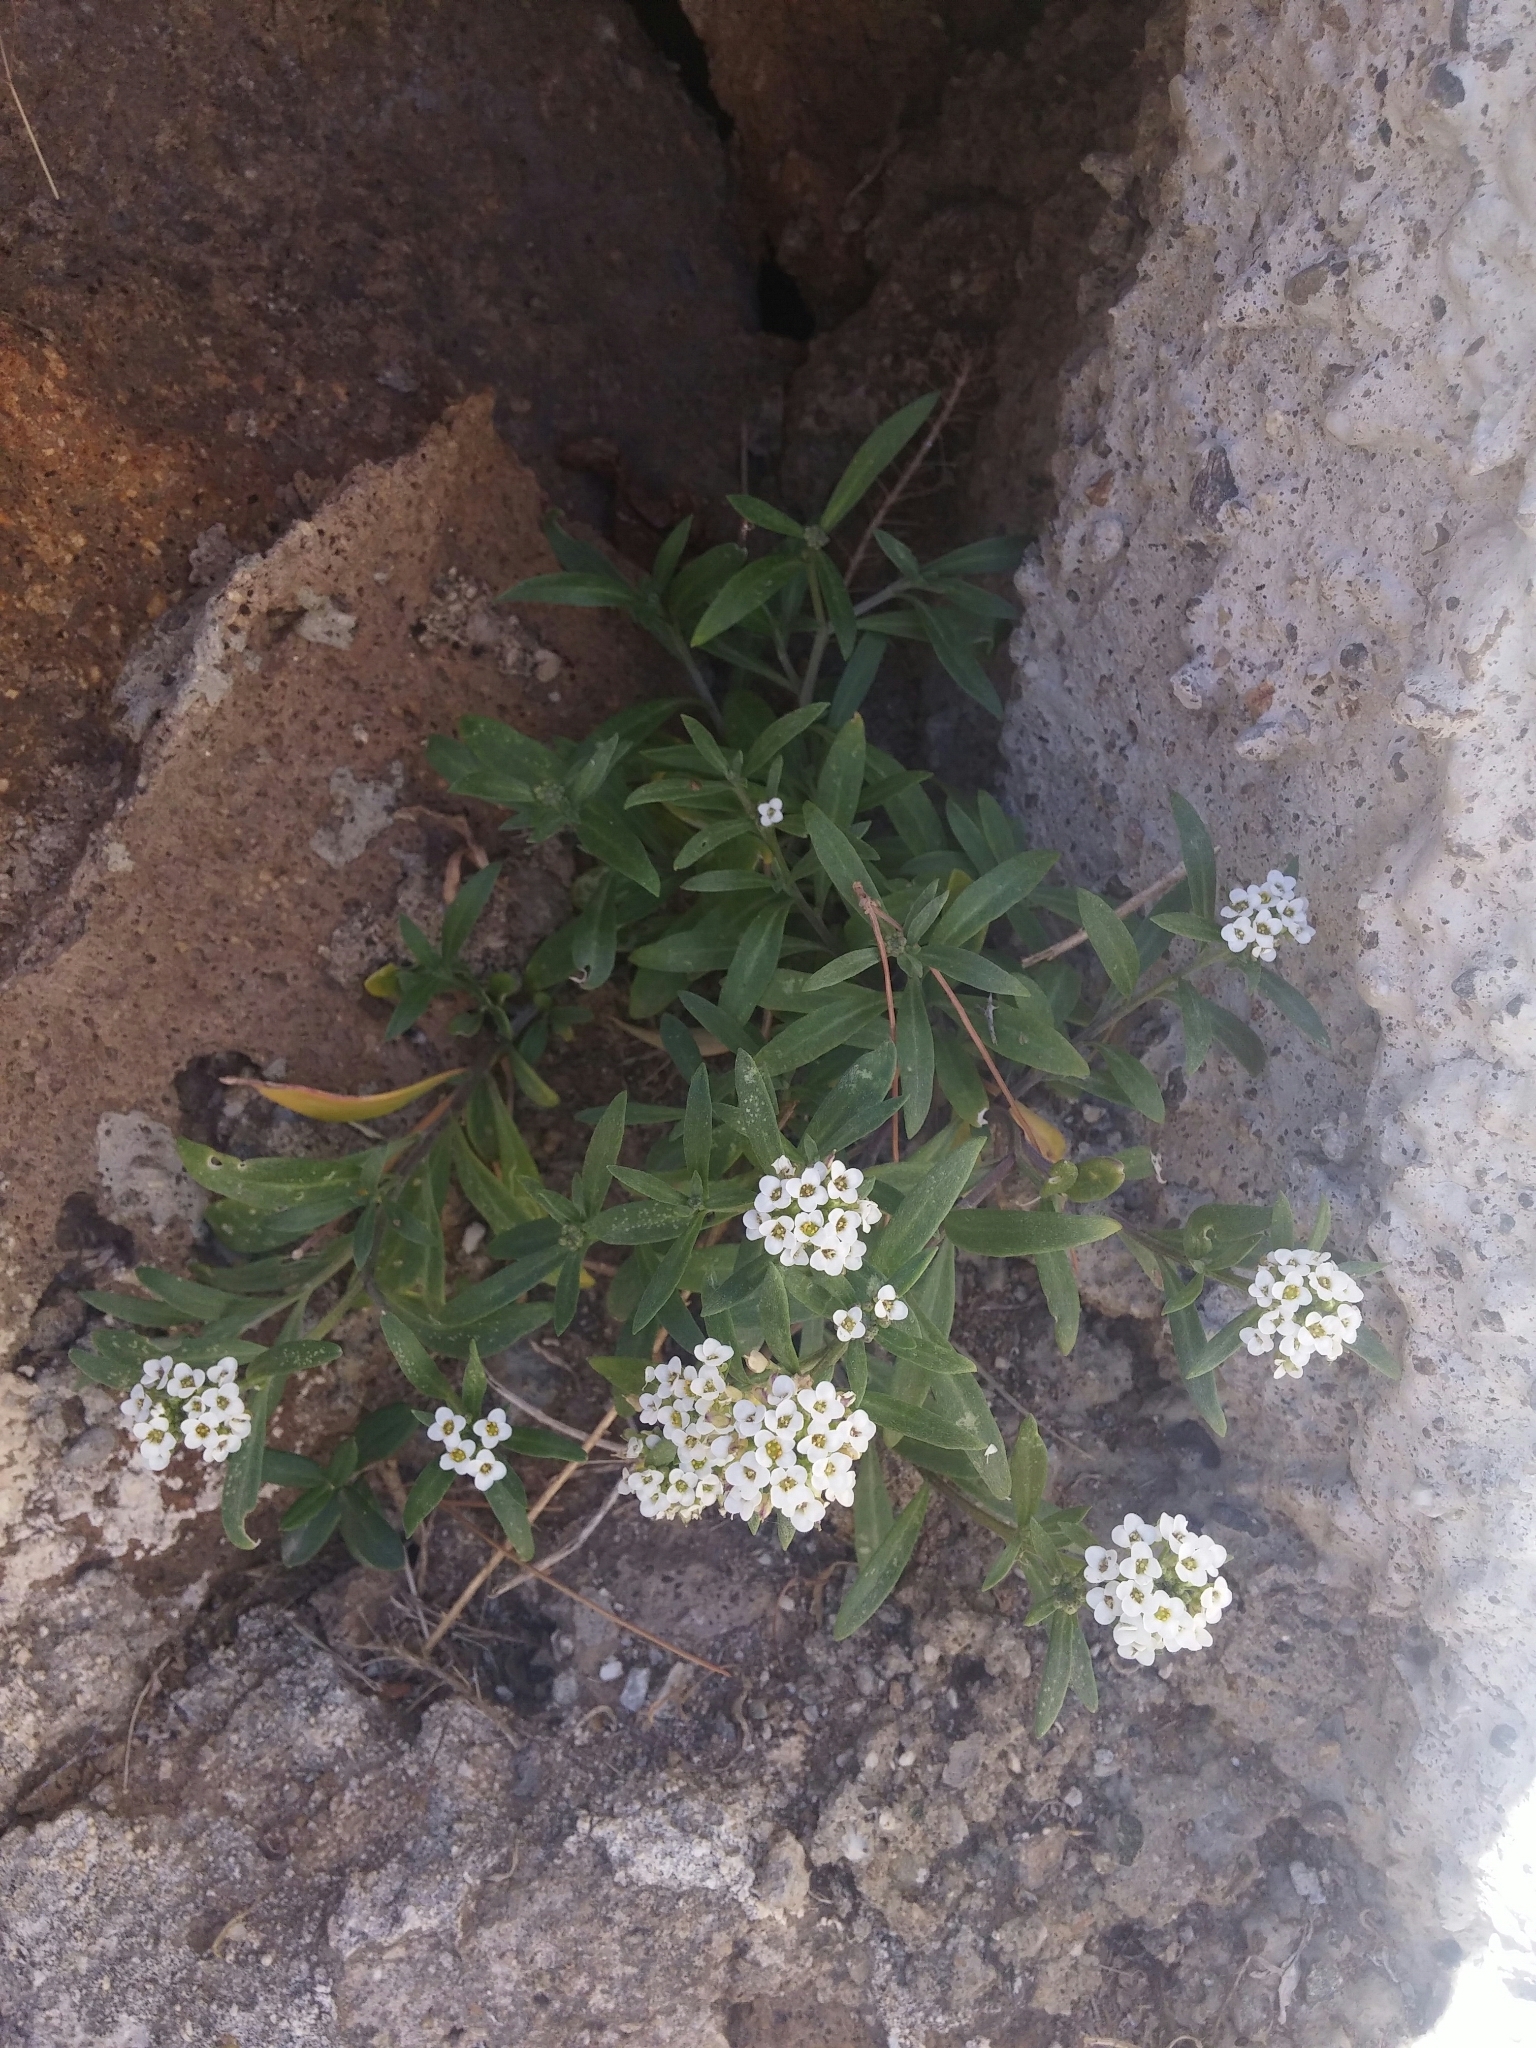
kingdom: Plantae
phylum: Tracheophyta
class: Magnoliopsida
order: Brassicales
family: Brassicaceae
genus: Lobularia
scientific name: Lobularia maritima
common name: Sweet alison
